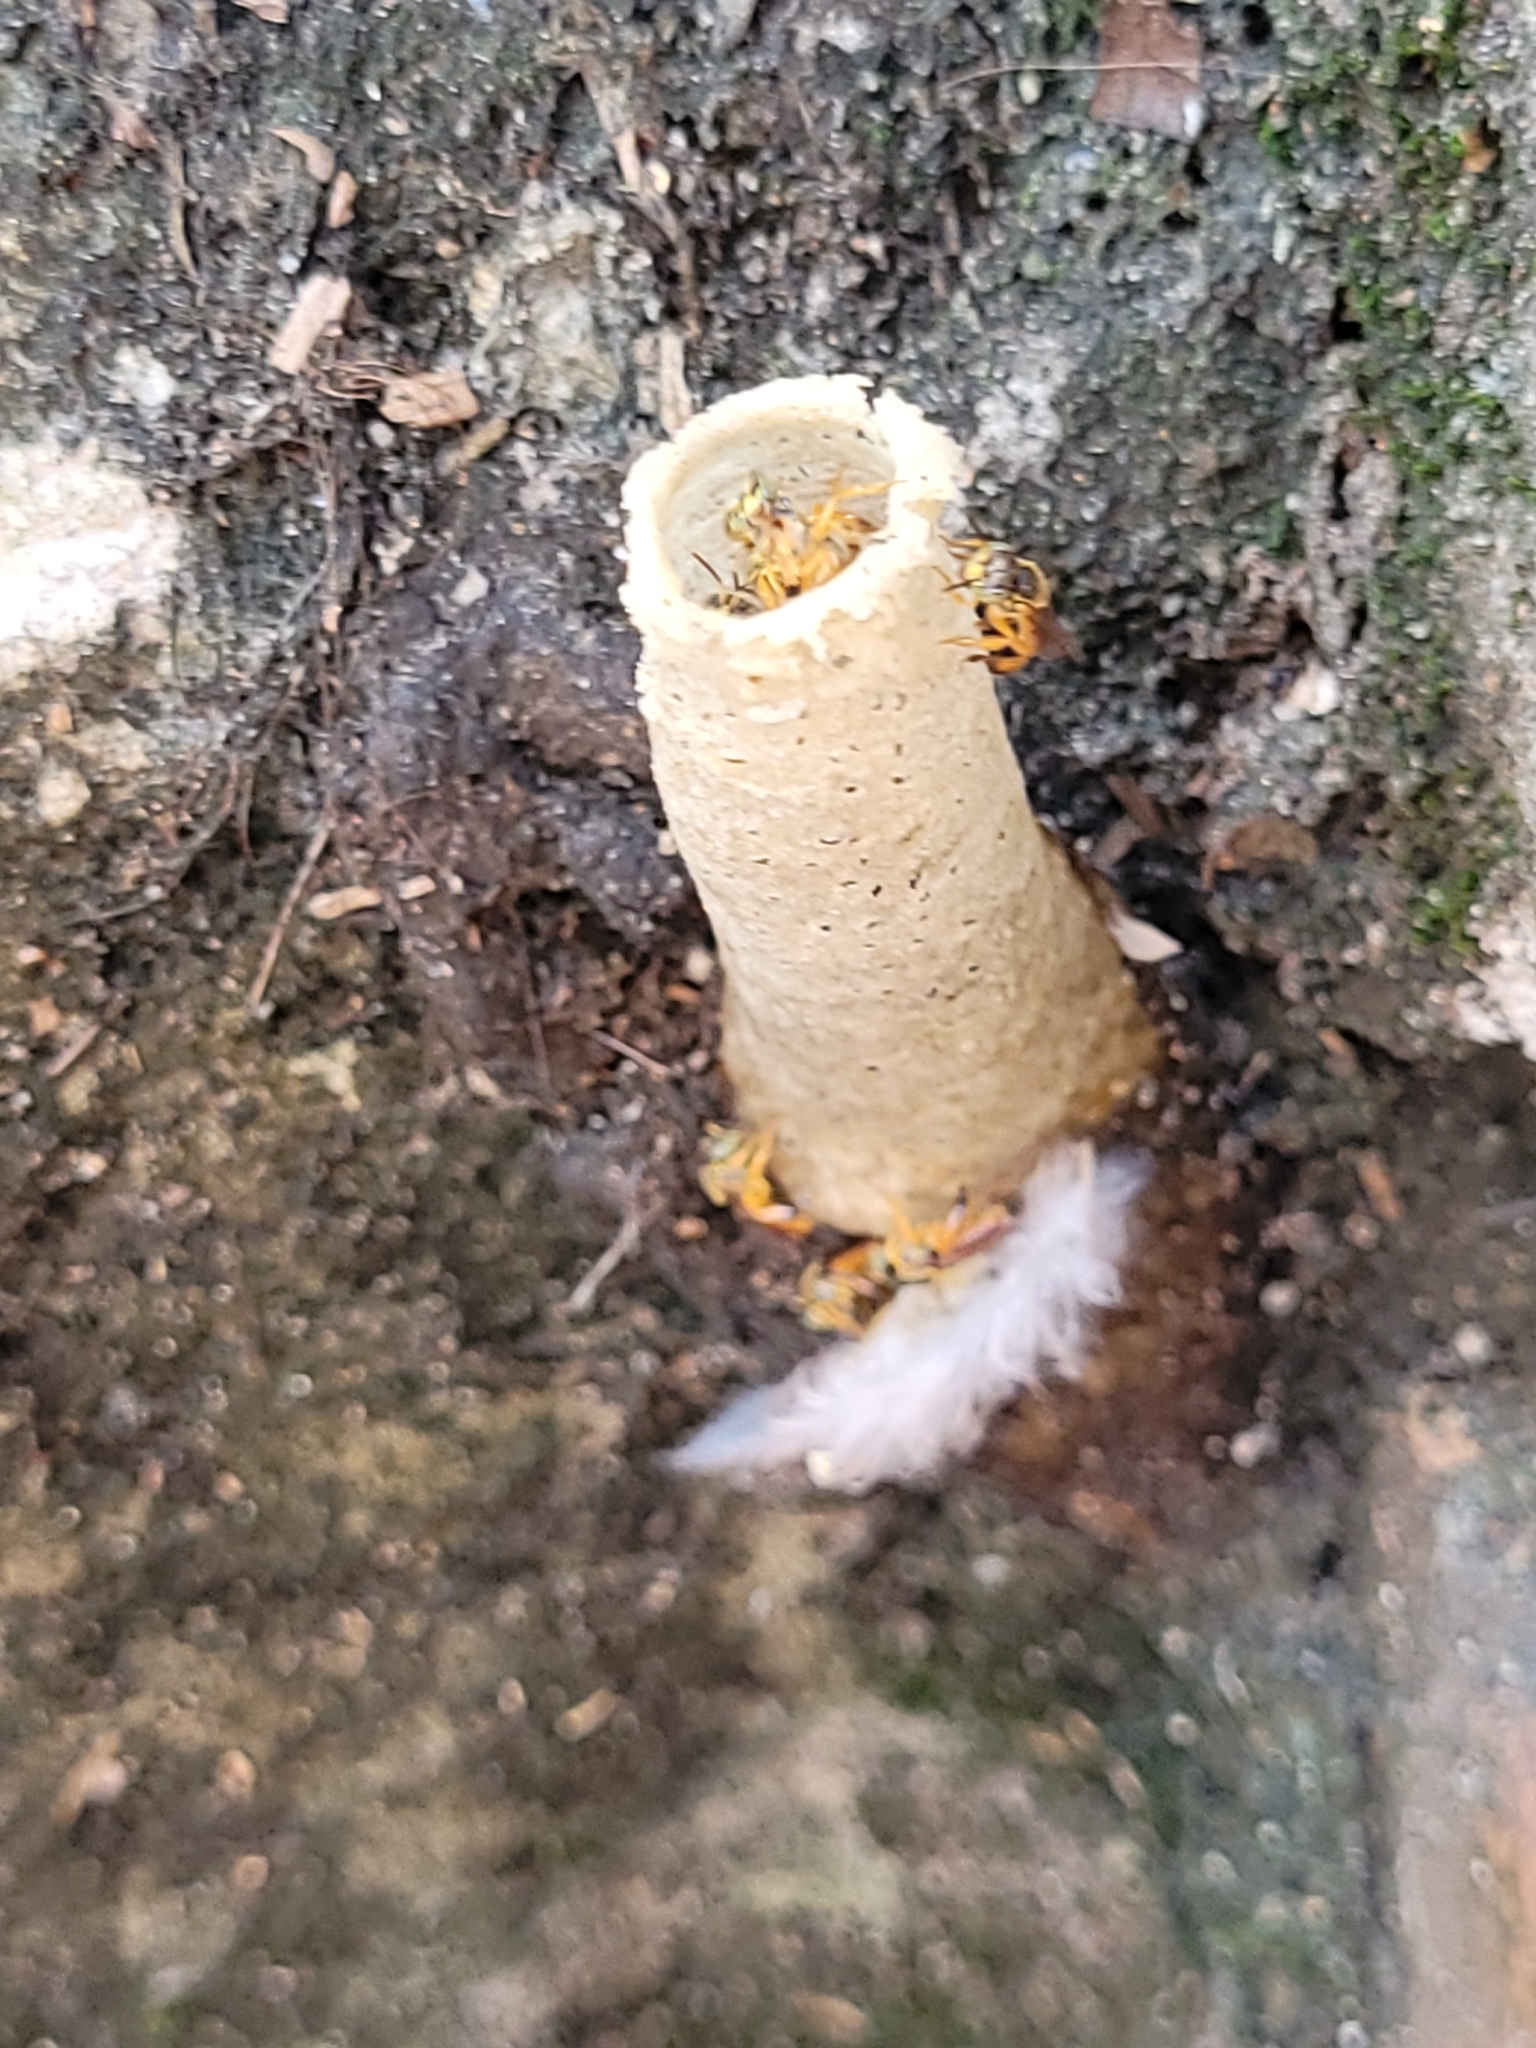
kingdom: Animalia
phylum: Arthropoda
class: Insecta
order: Hymenoptera
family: Apidae
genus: Tetragonisca
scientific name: Tetragonisca angustula
